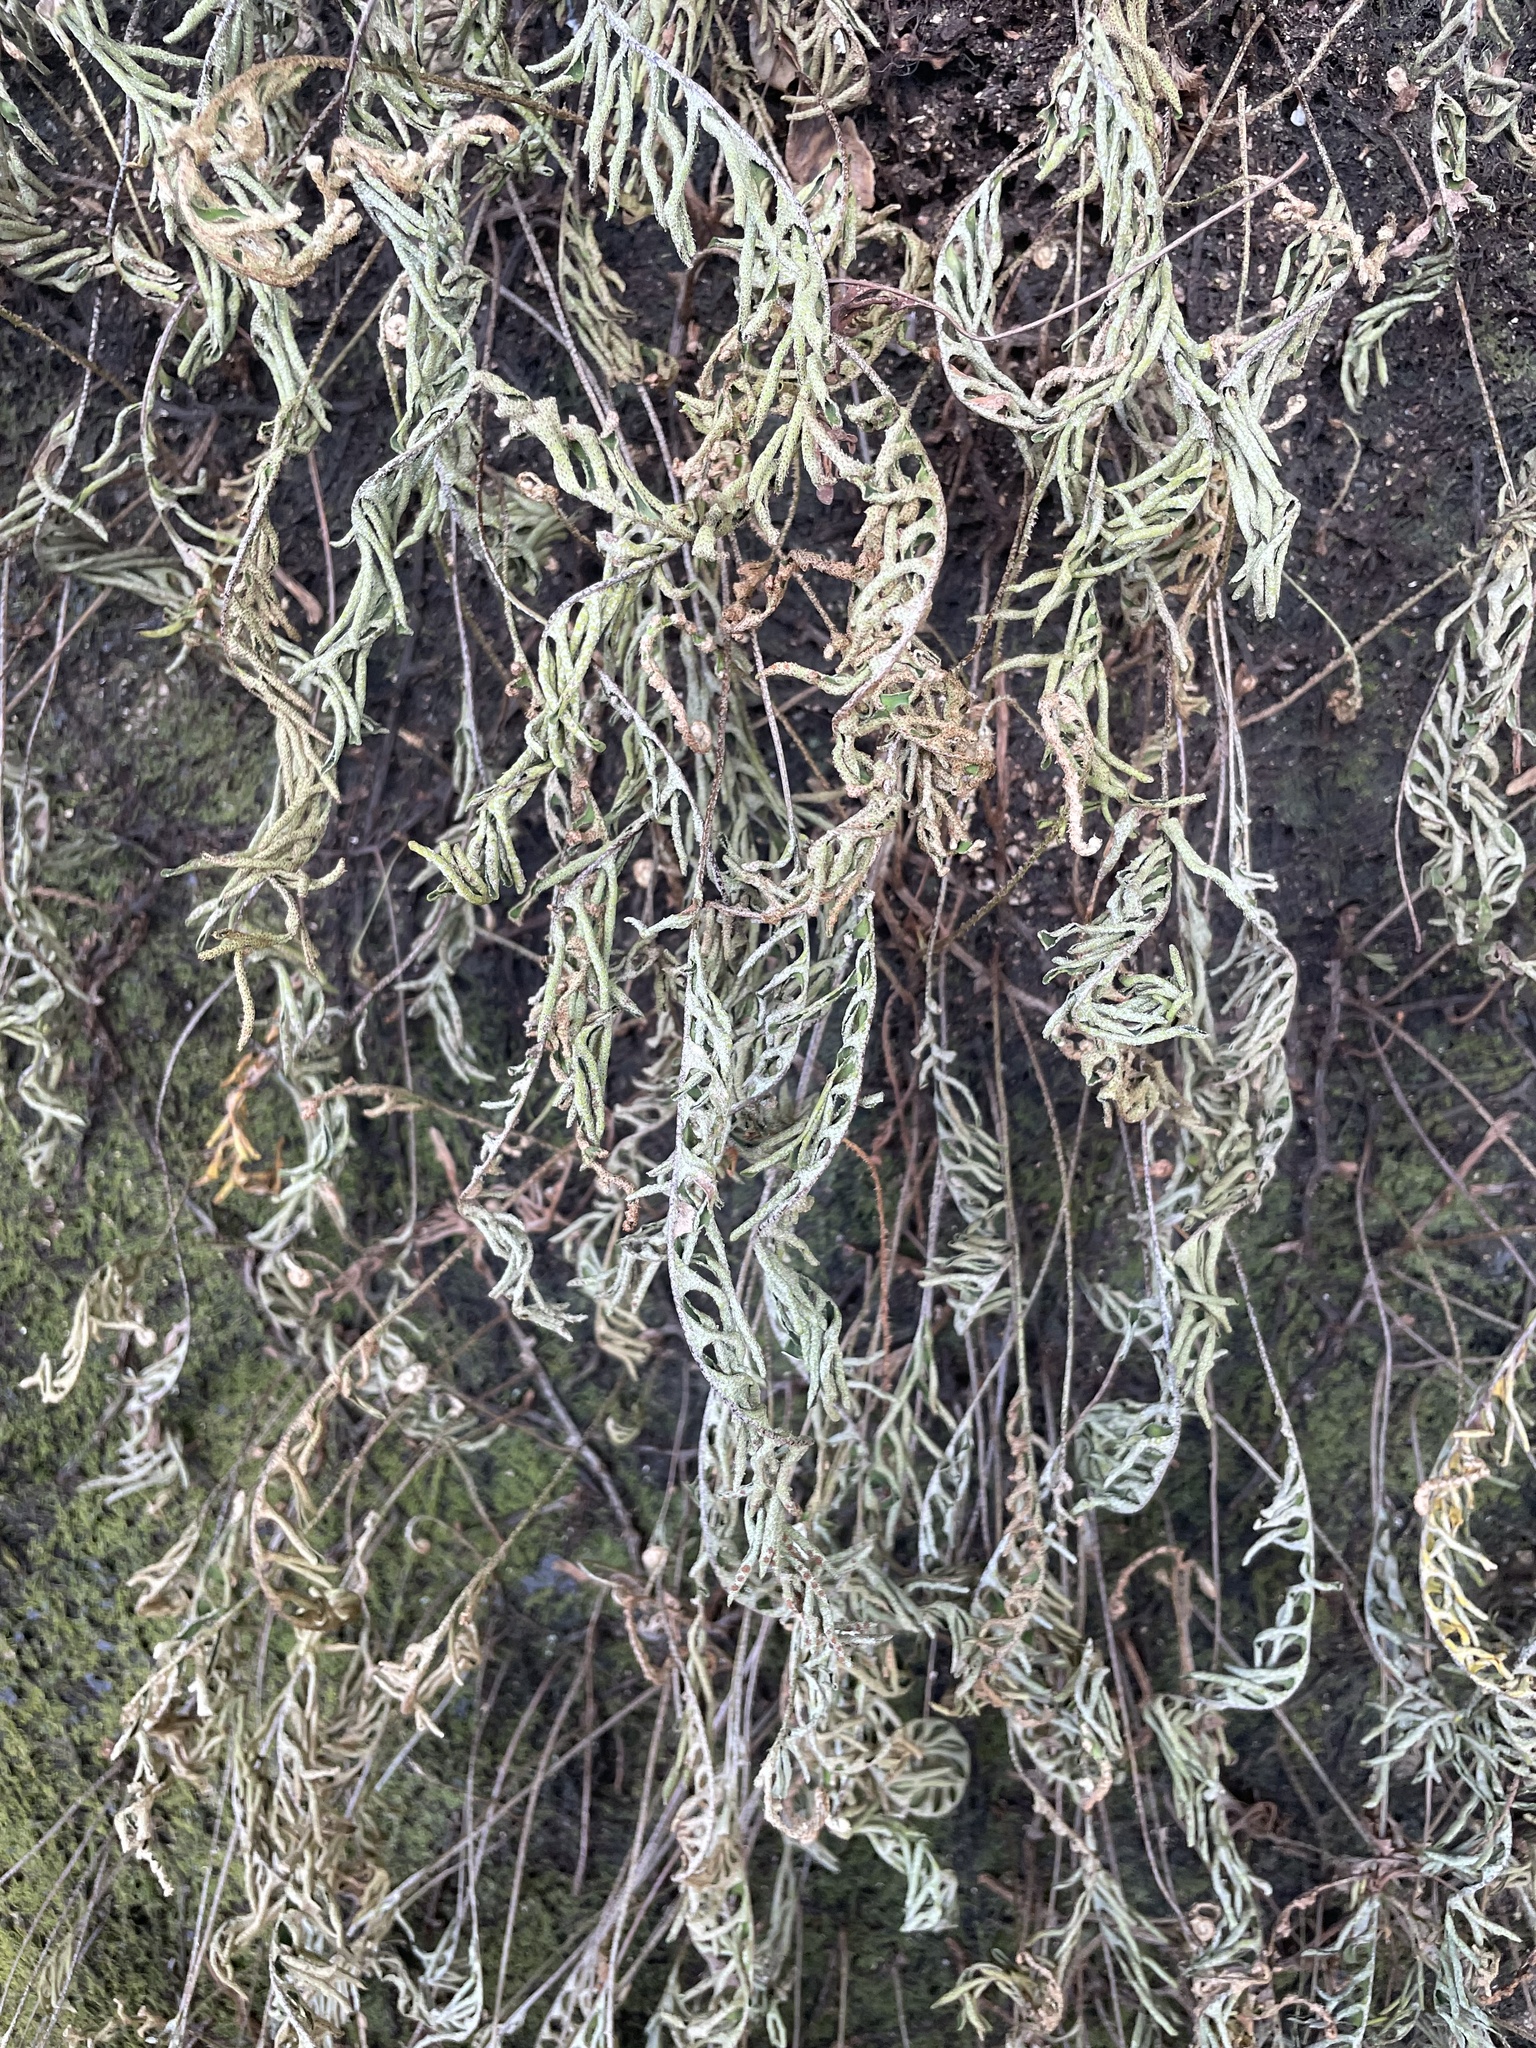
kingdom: Plantae
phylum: Tracheophyta
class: Polypodiopsida
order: Polypodiales
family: Polypodiaceae
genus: Pleopeltis
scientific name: Pleopeltis michauxiana
